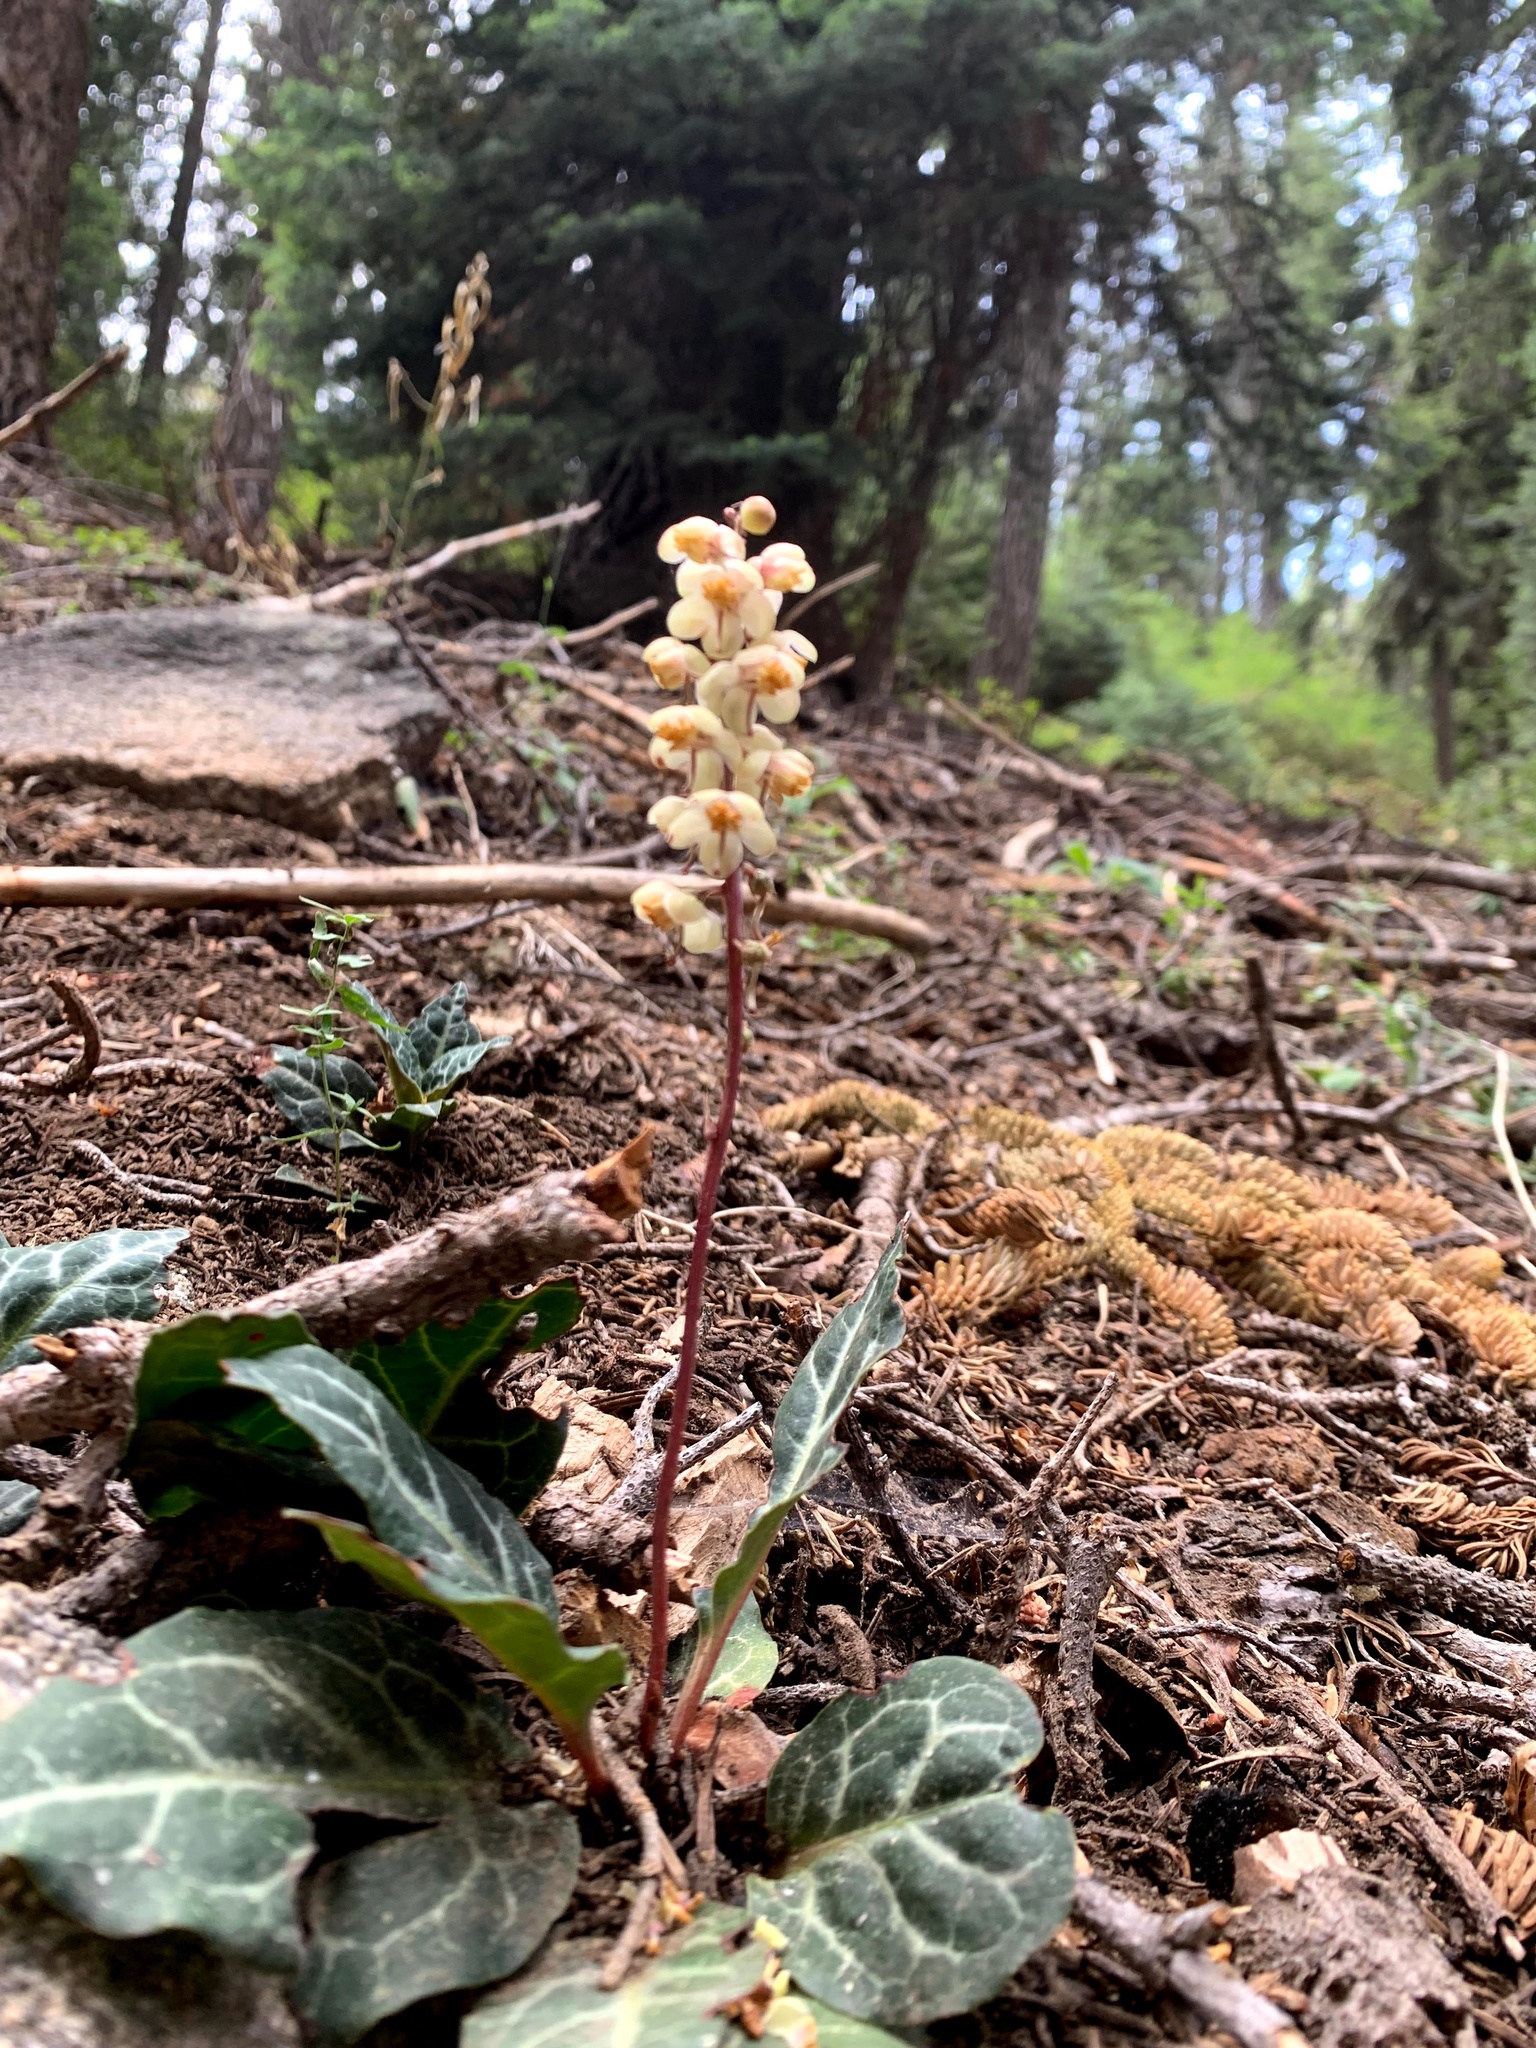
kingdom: Plantae
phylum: Tracheophyta
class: Magnoliopsida
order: Ericales
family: Ericaceae
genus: Pyrola
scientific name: Pyrola picta
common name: White-vein wintergreen
